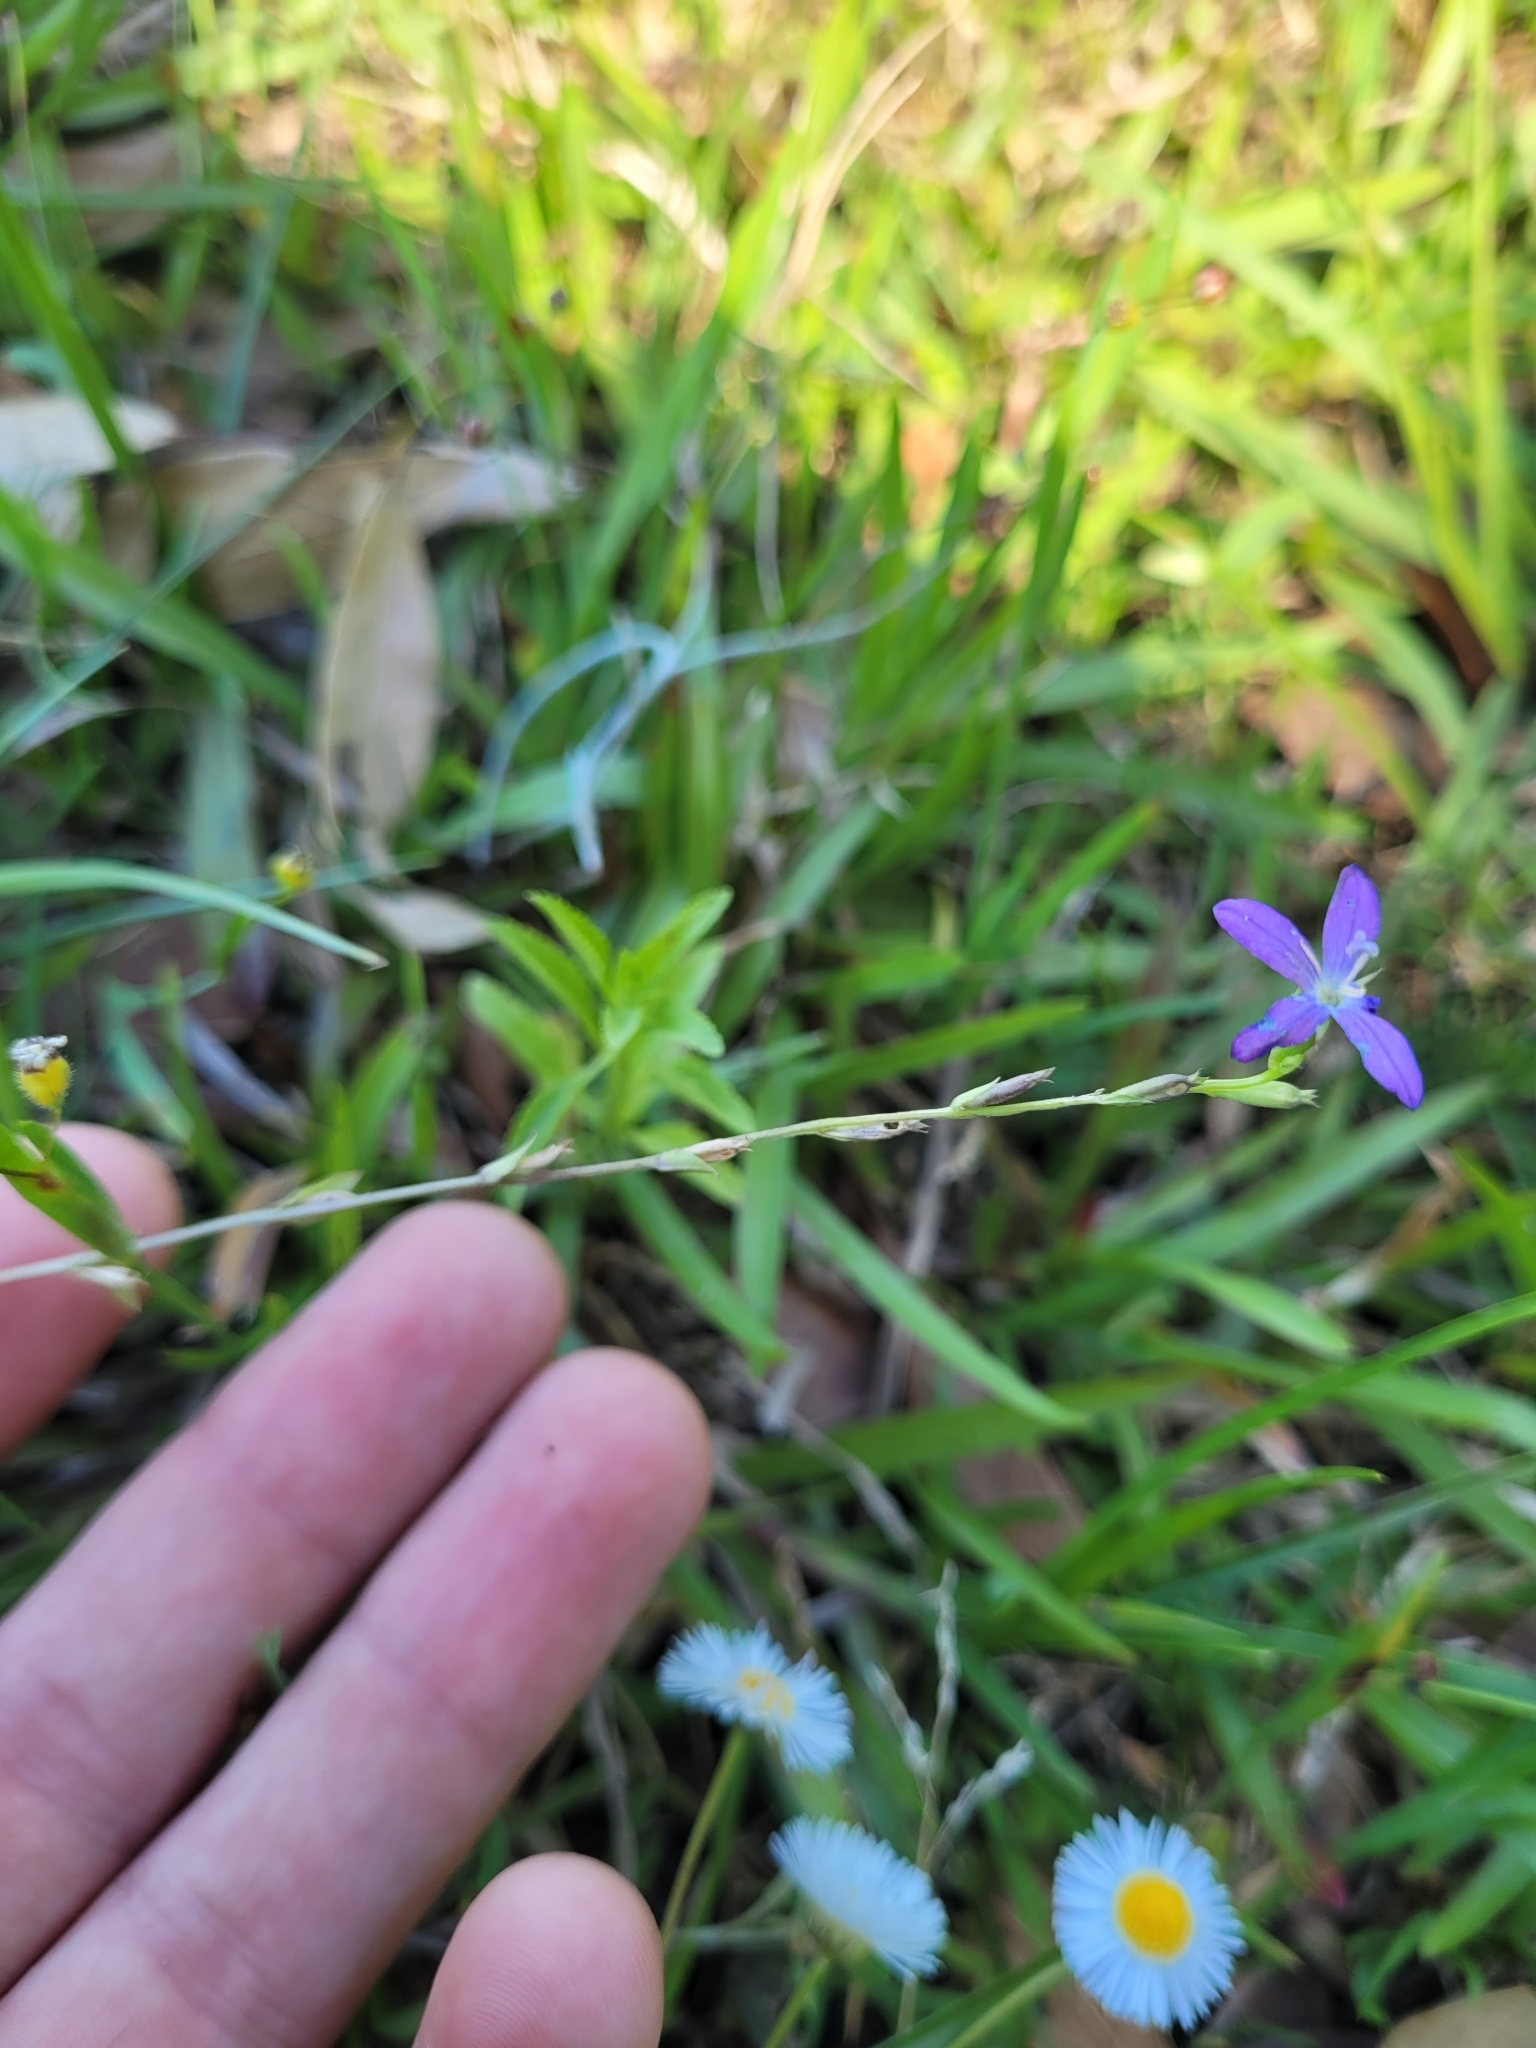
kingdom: Plantae
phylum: Tracheophyta
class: Magnoliopsida
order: Asterales
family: Campanulaceae
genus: Triodanis
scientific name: Triodanis biflora
